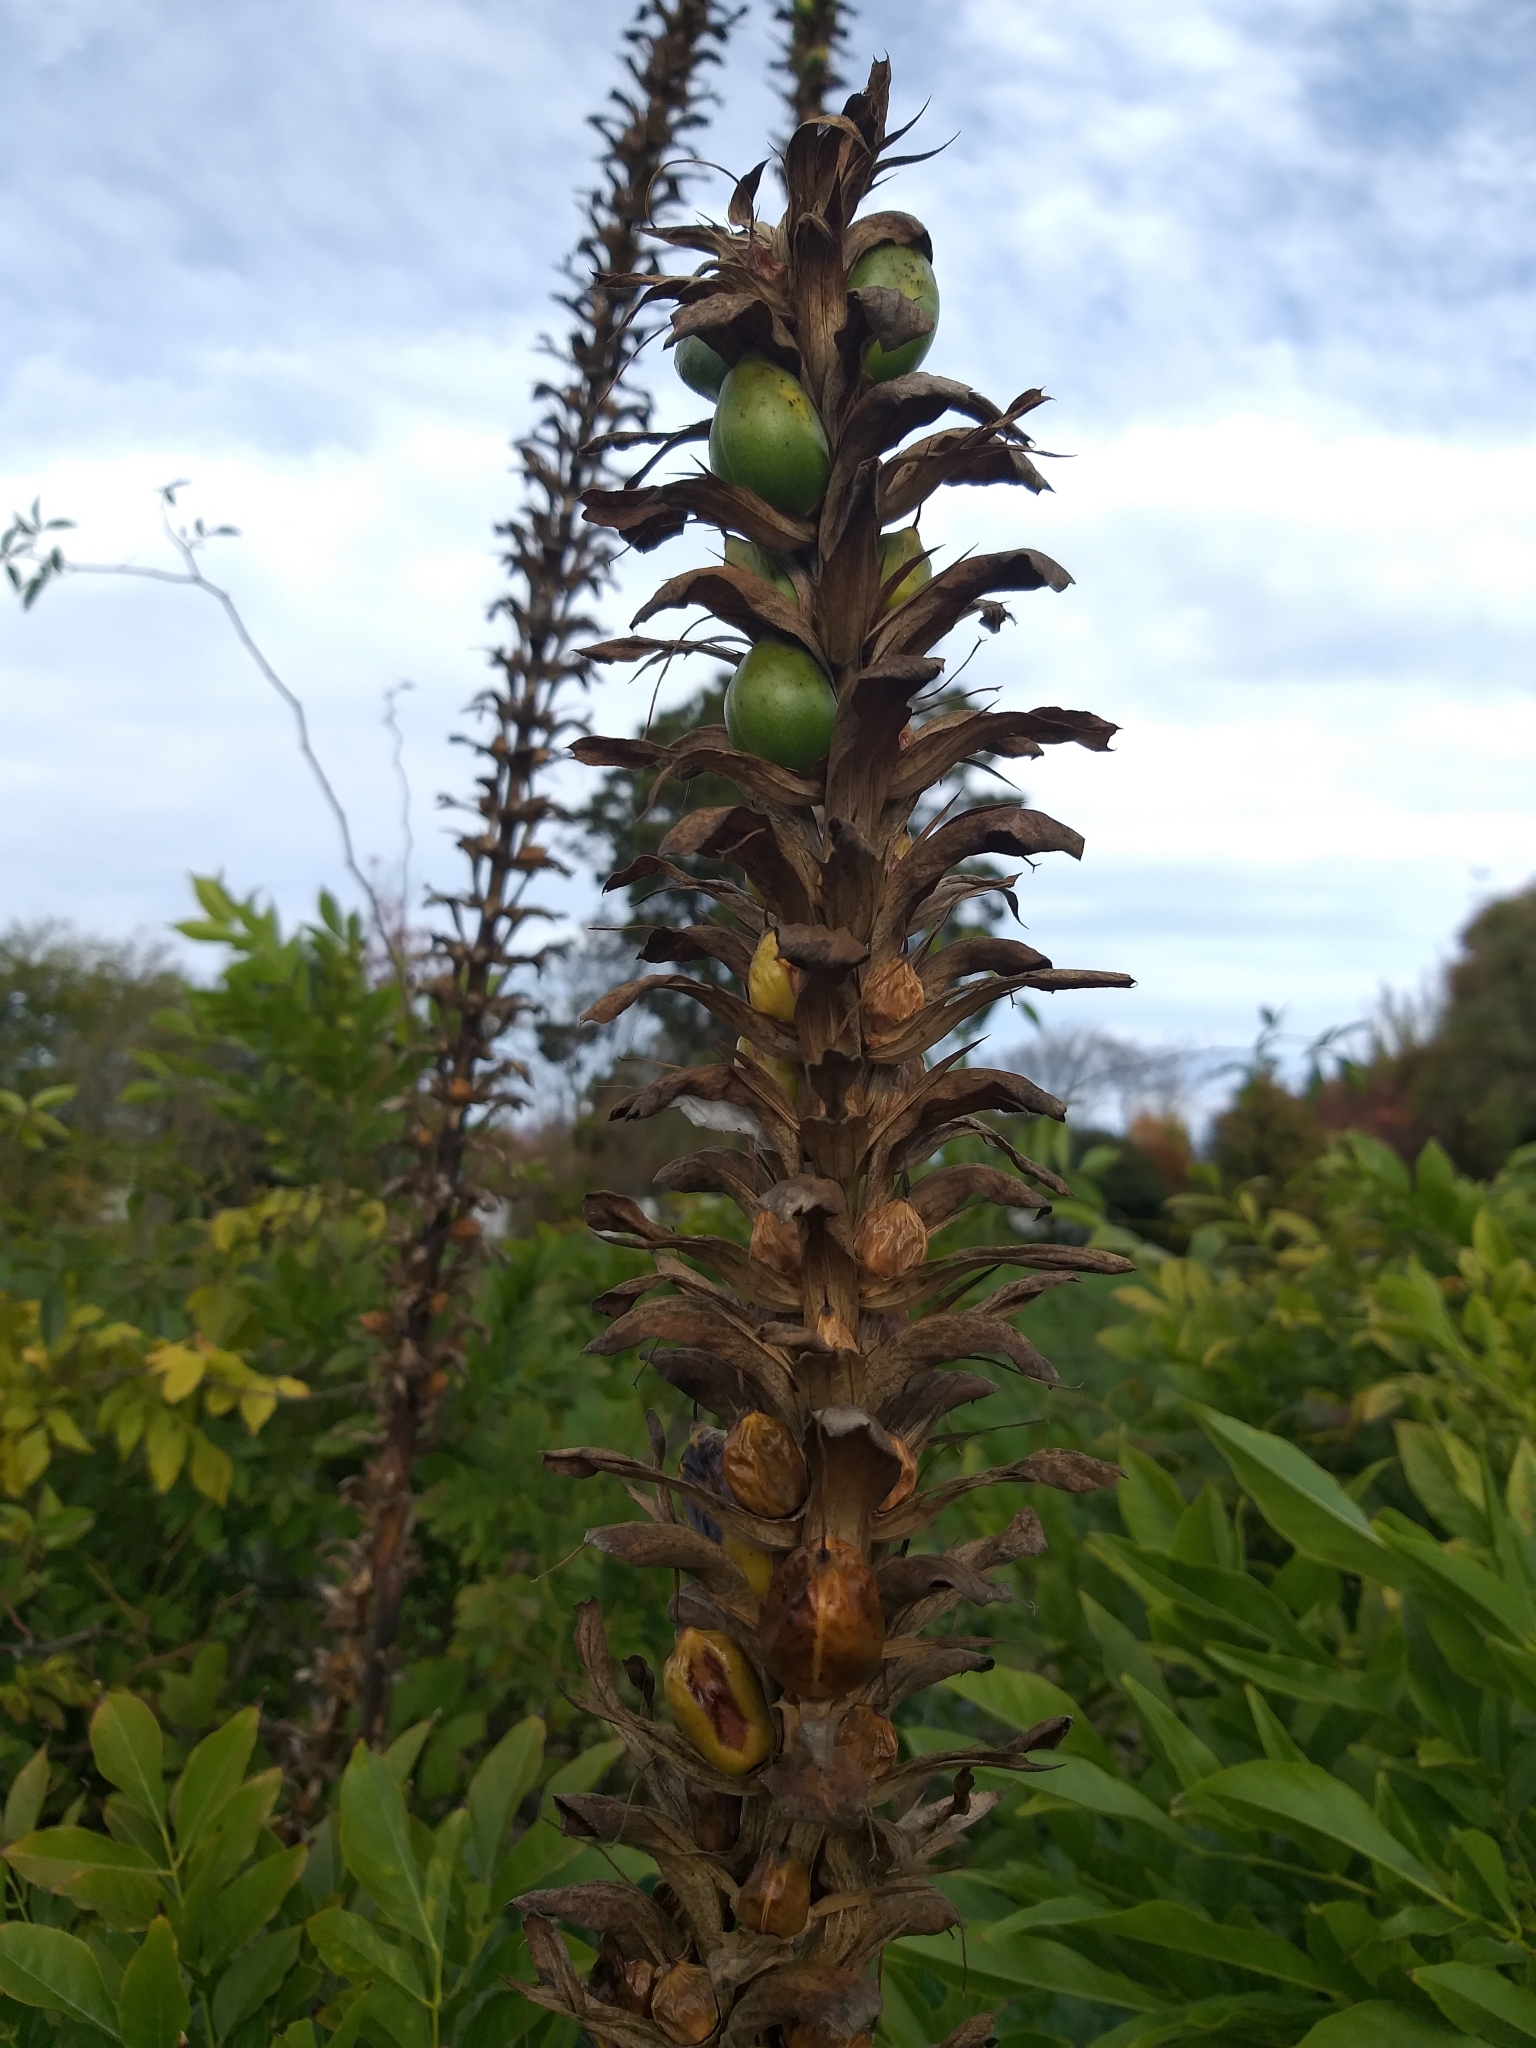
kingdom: Plantae
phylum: Tracheophyta
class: Magnoliopsida
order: Lamiales
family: Acanthaceae
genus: Acanthus
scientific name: Acanthus mollis
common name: Bear's-breech
